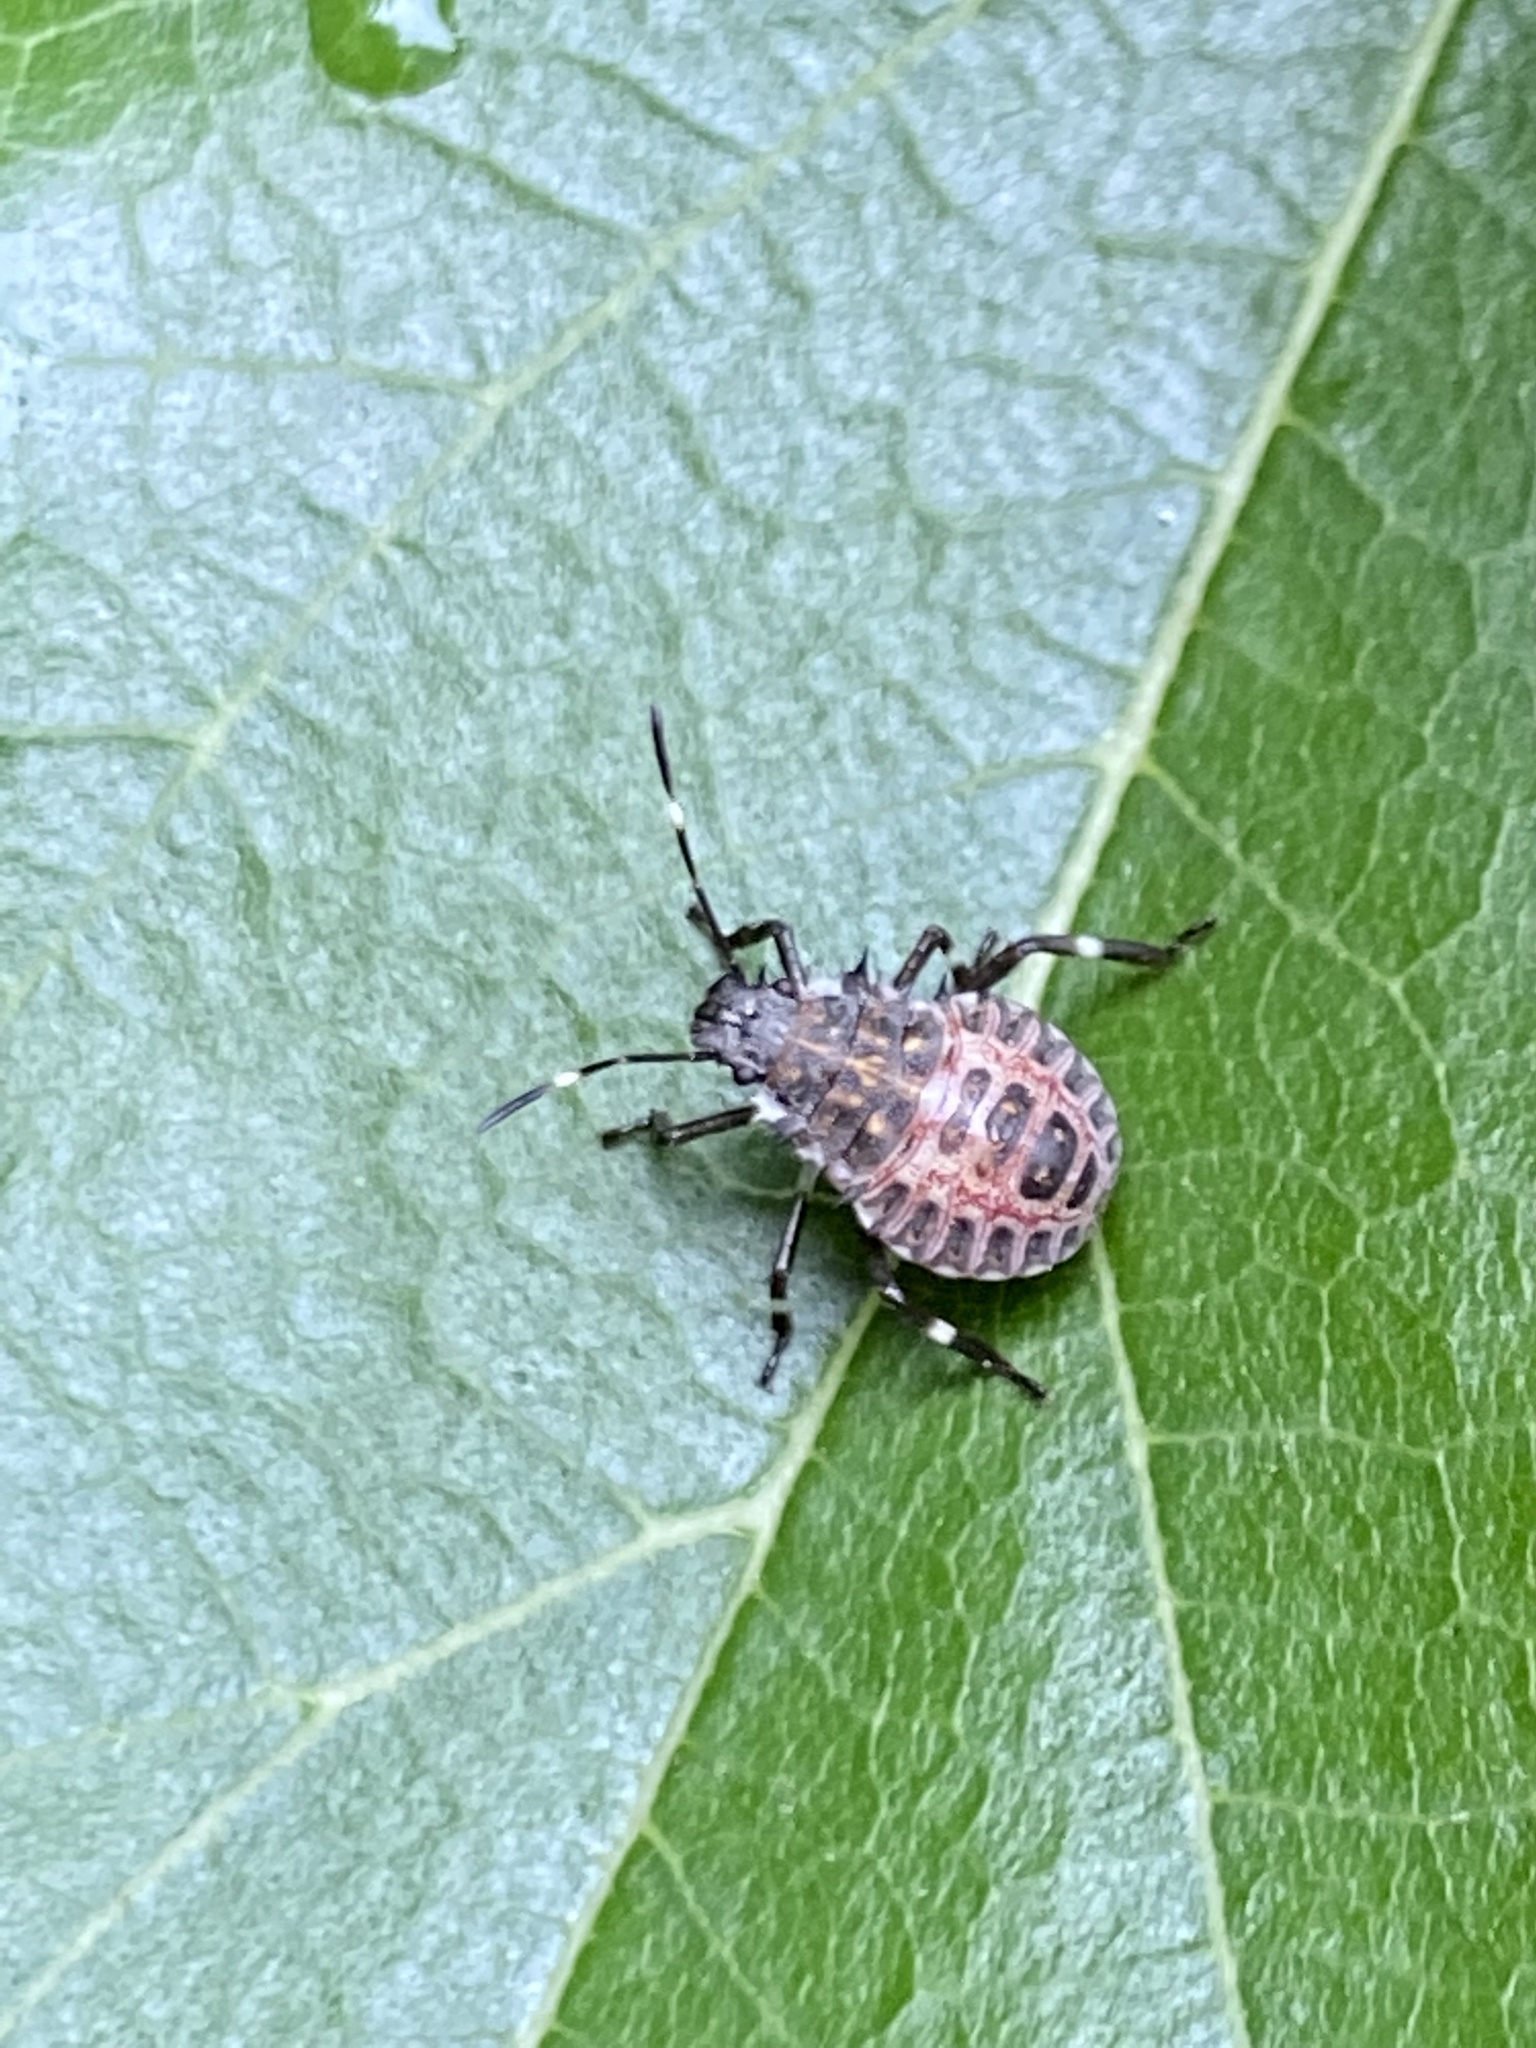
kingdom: Animalia
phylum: Arthropoda
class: Insecta
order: Hemiptera
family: Pentatomidae
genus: Halyomorpha
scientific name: Halyomorpha halys
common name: Brown marmorated stink bug
